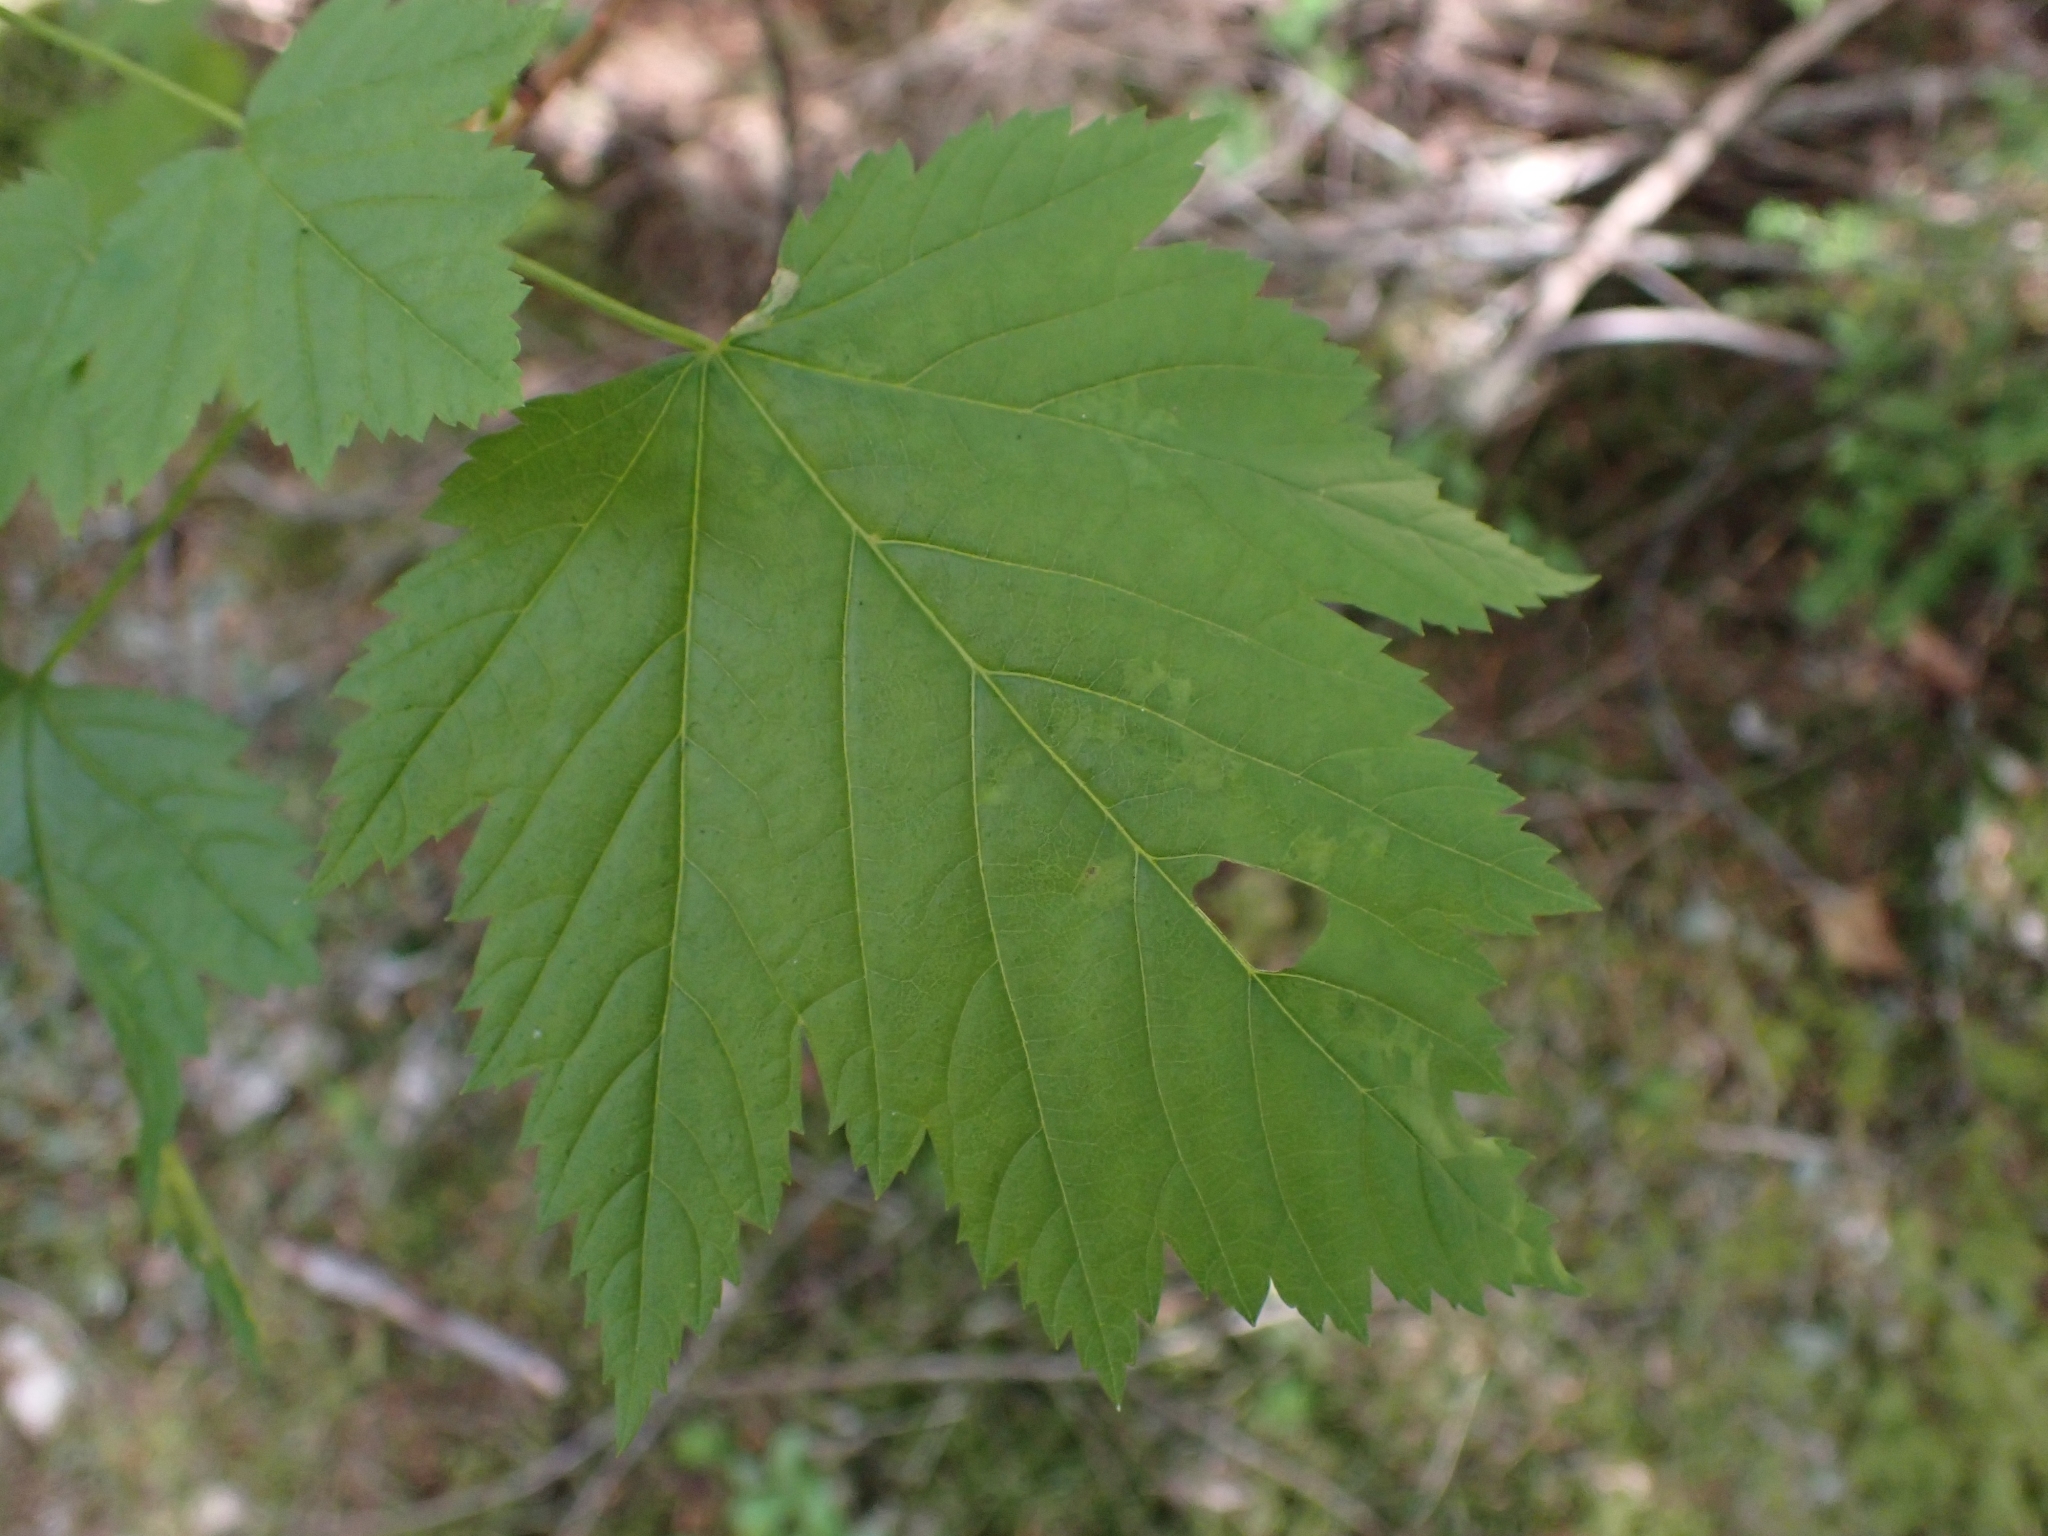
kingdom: Plantae
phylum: Tracheophyta
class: Magnoliopsida
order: Sapindales
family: Sapindaceae
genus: Acer
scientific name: Acer glabrum
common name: Rocky mountain maple
